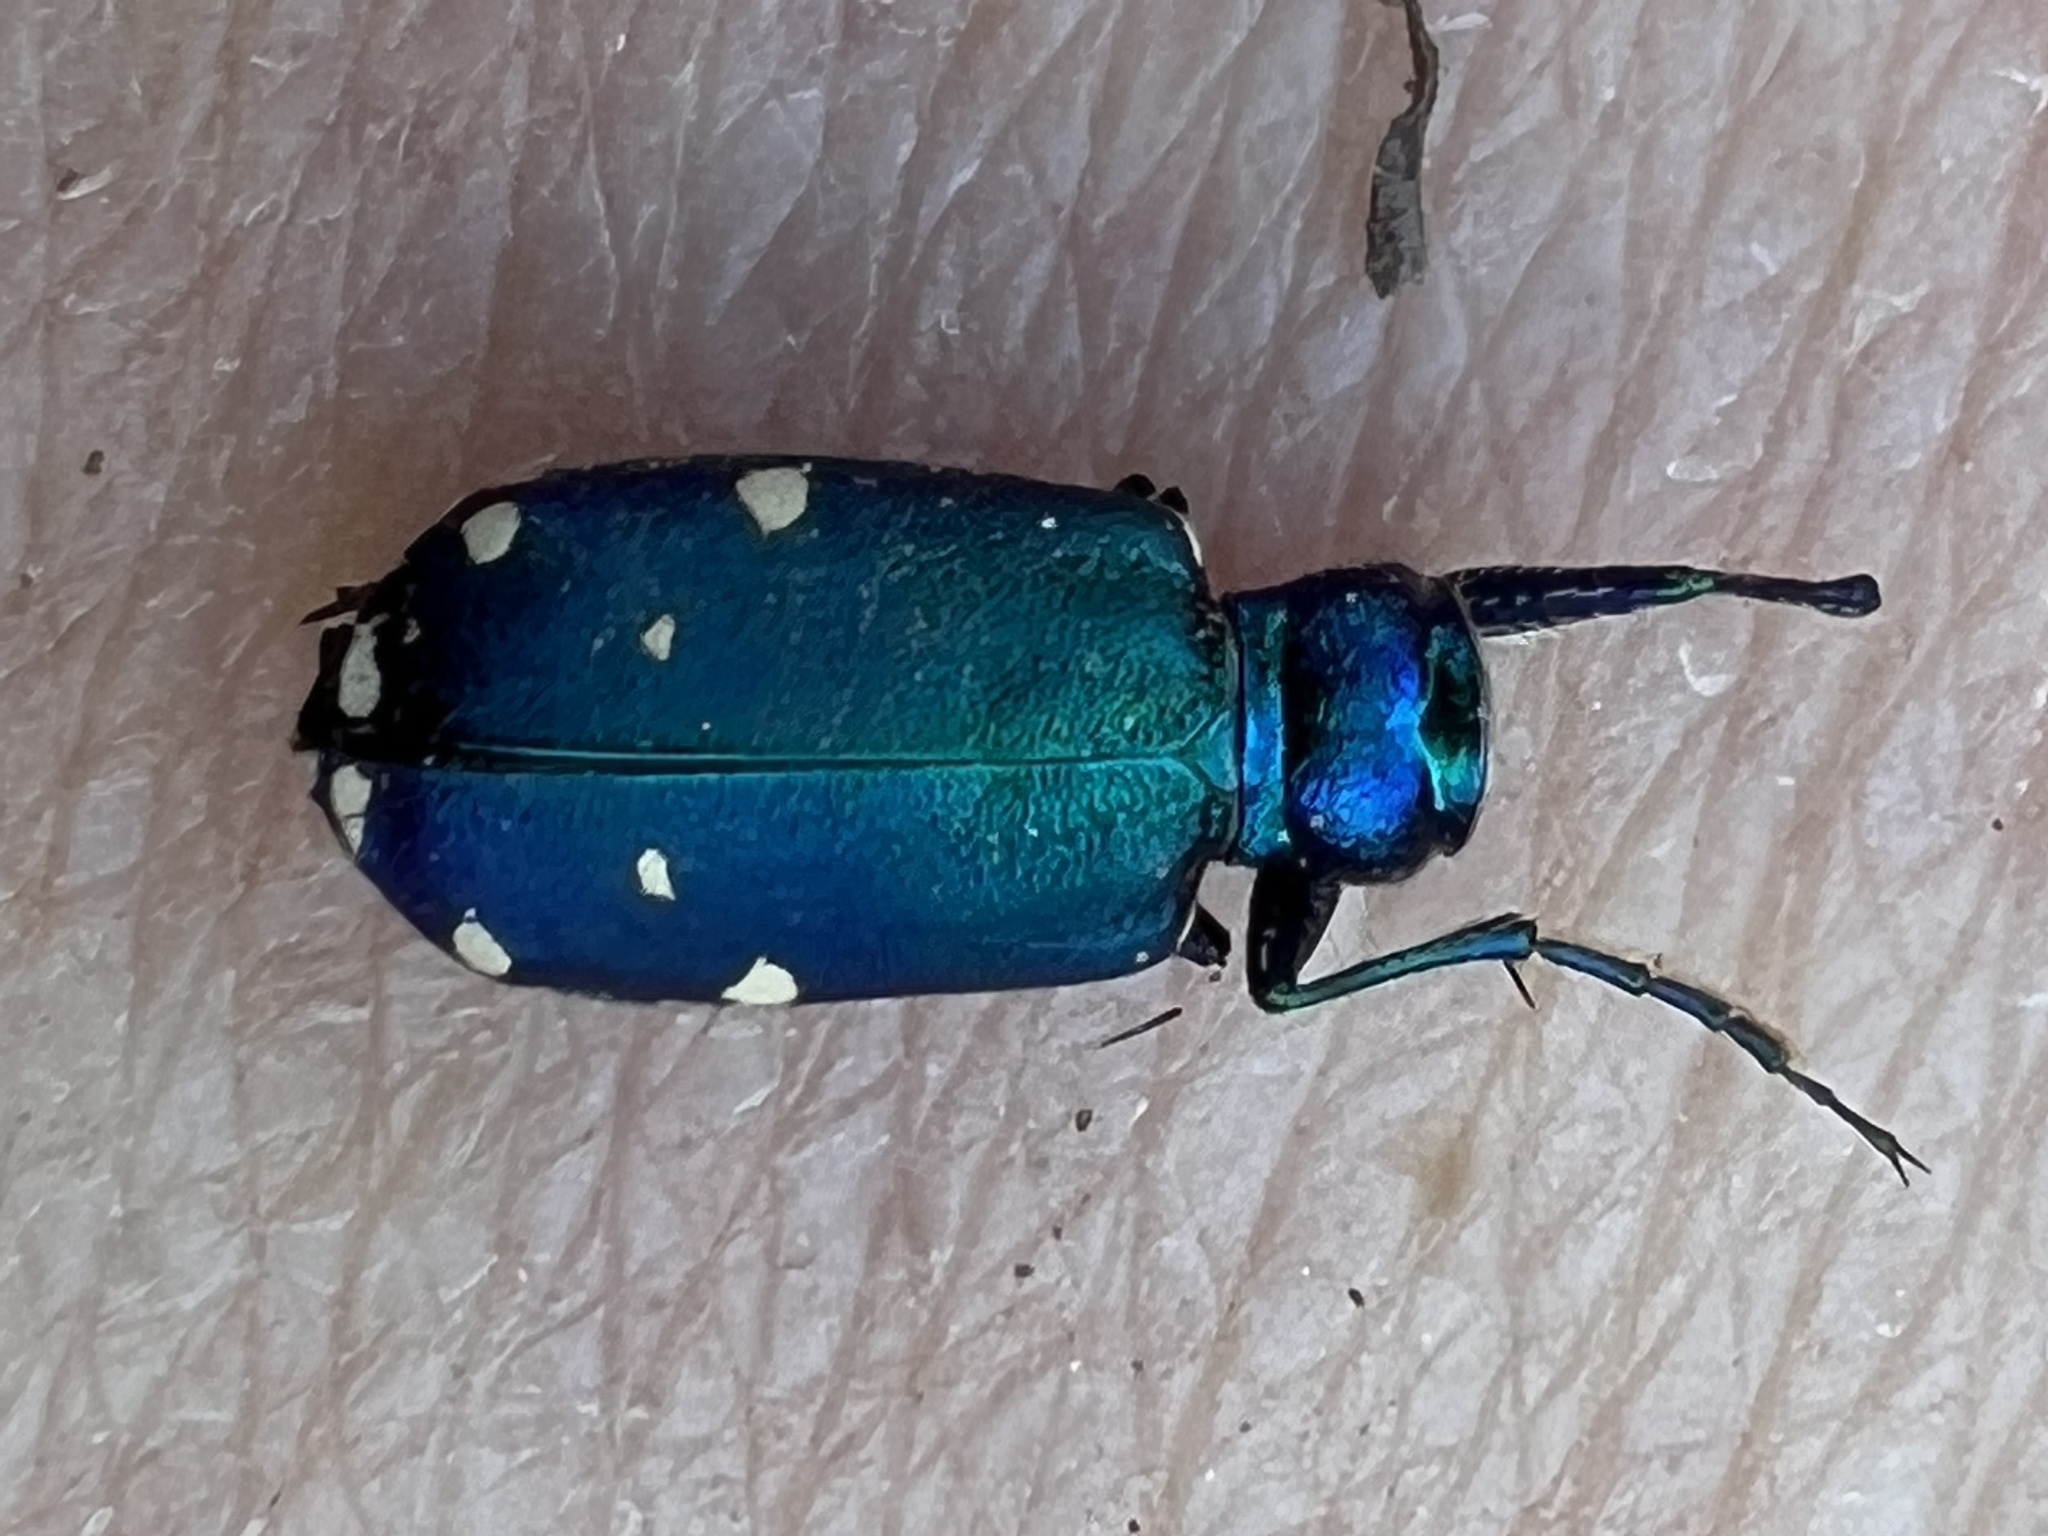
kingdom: Animalia
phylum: Arthropoda
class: Insecta
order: Coleoptera
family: Carabidae
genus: Cicindela
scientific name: Cicindela sexguttata
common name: Six-spotted tiger beetle
